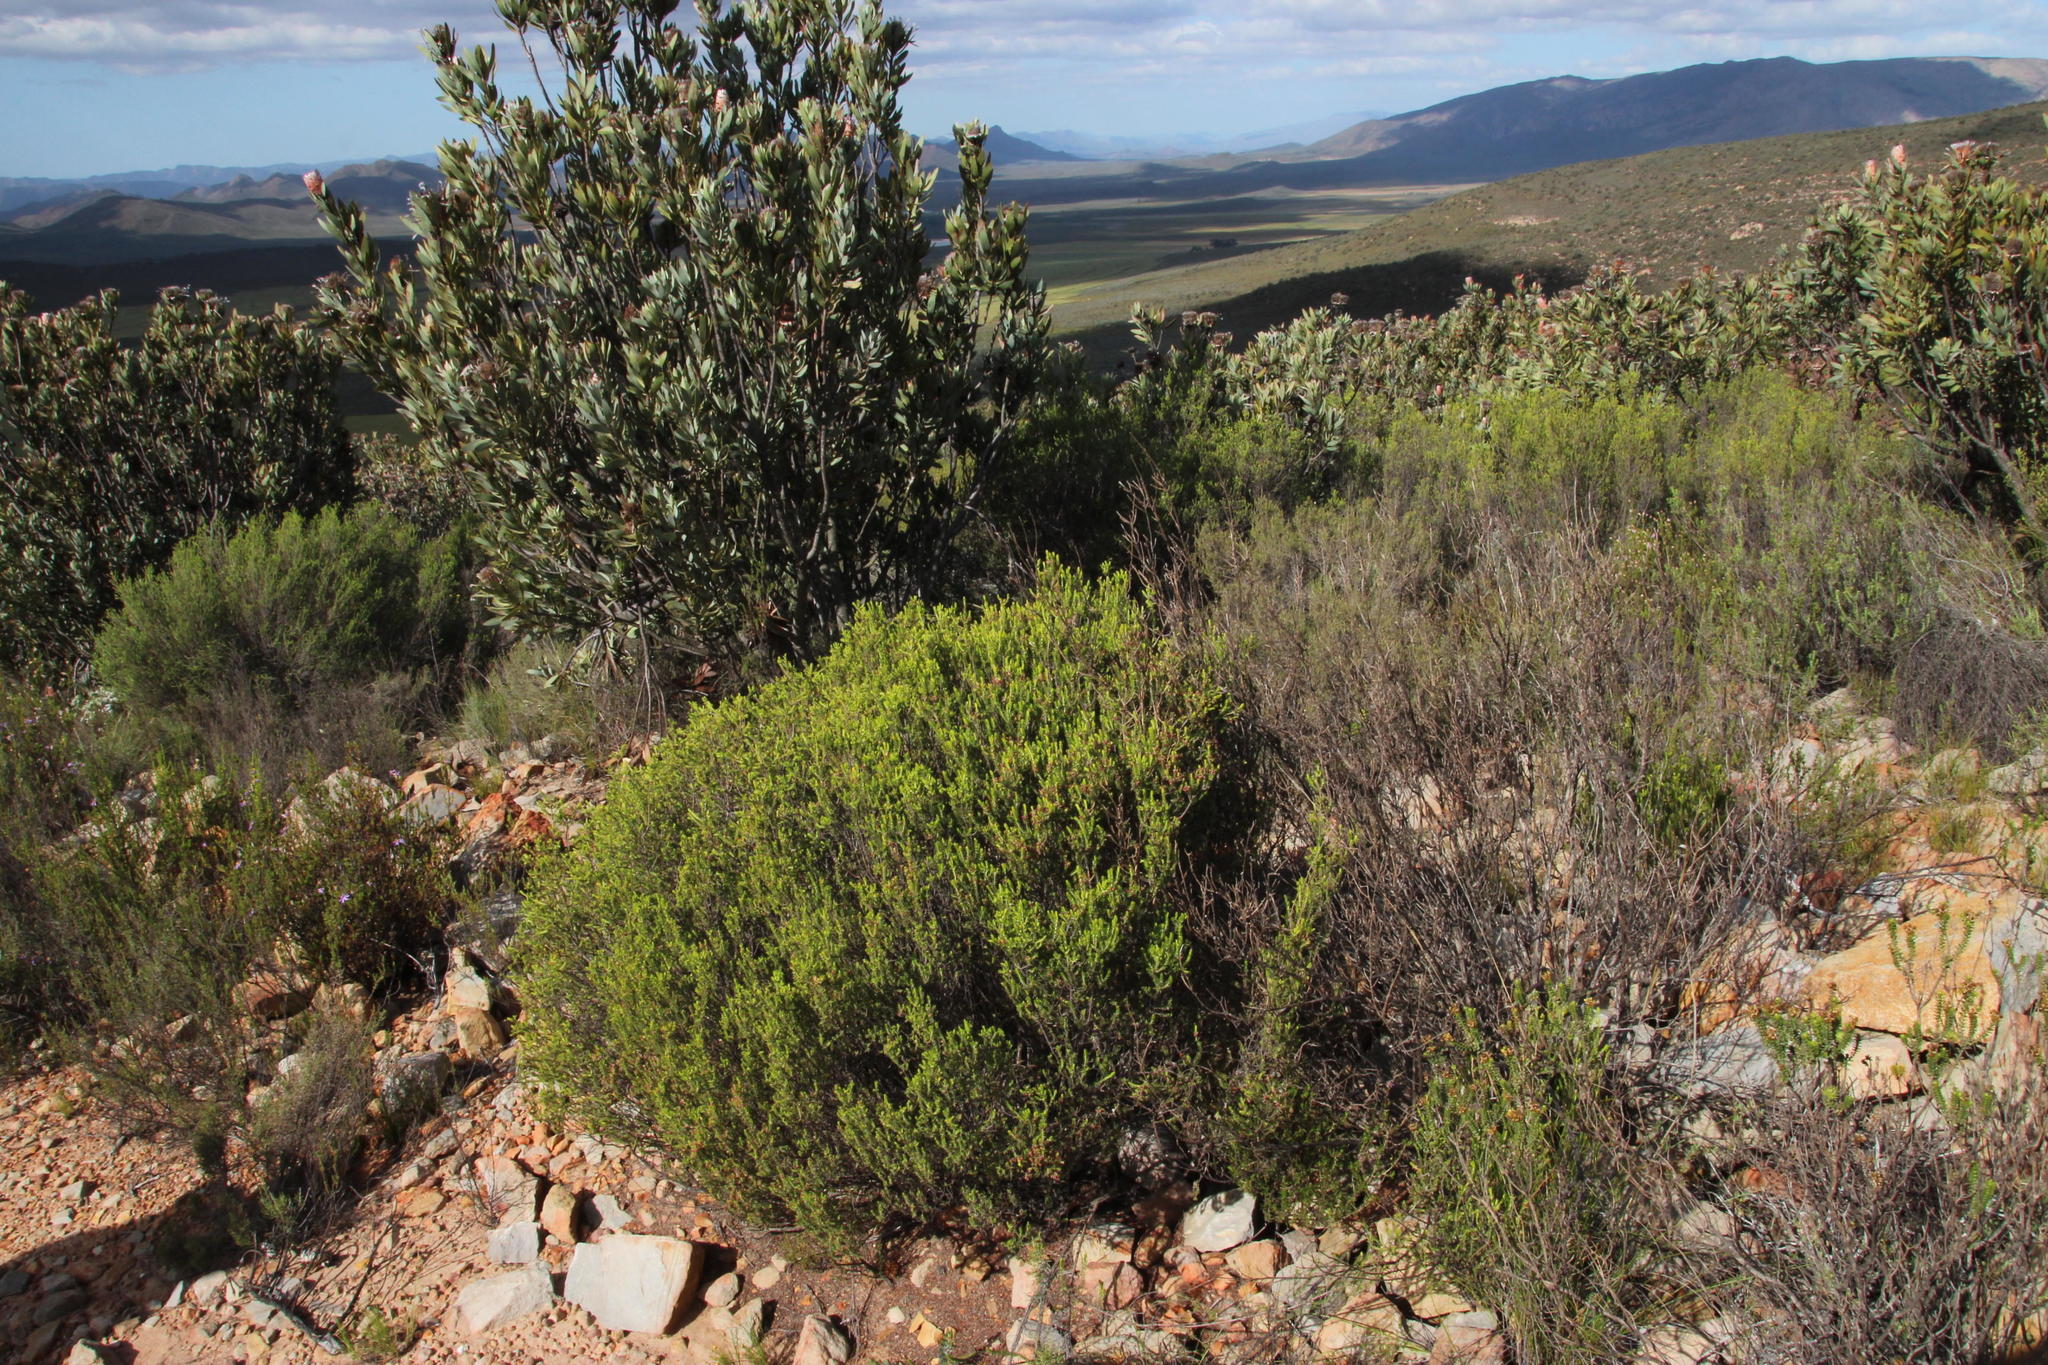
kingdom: Plantae
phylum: Tracheophyta
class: Magnoliopsida
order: Malvales
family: Thymelaeaceae
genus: Passerina
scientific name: Passerina obtusifolia
